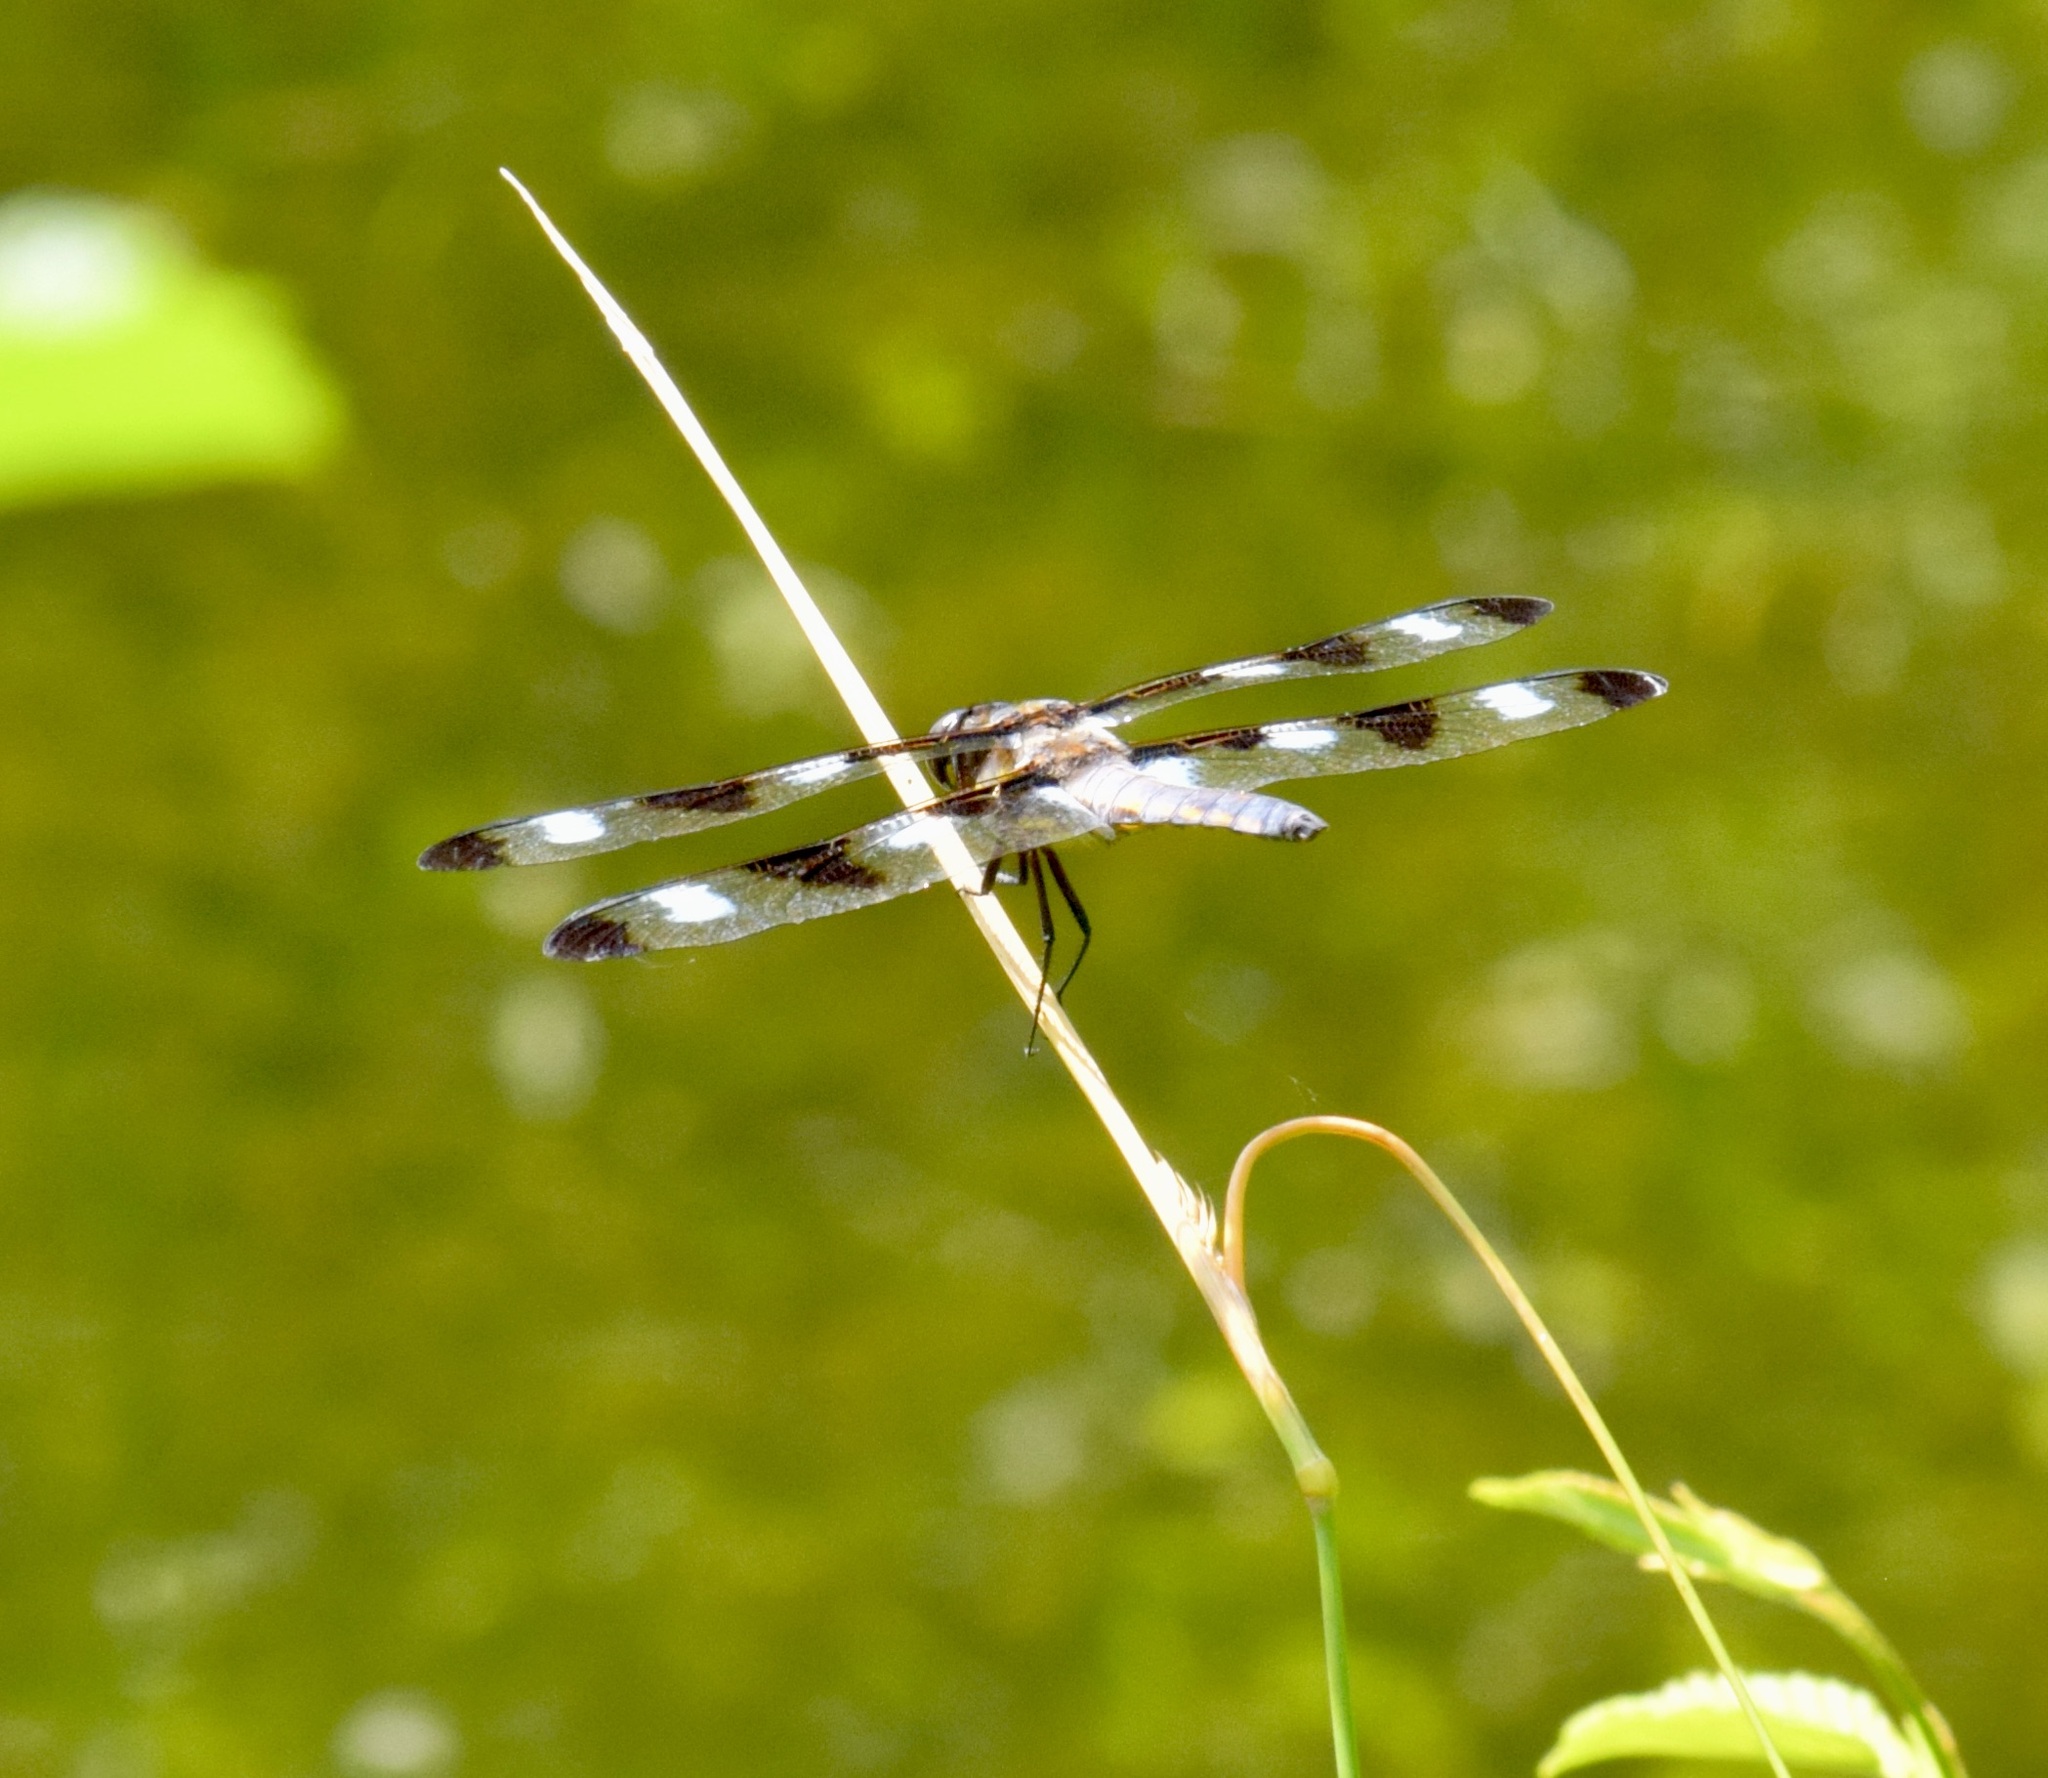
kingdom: Animalia
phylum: Arthropoda
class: Insecta
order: Odonata
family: Libellulidae
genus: Libellula
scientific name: Libellula pulchella
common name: Twelve-spotted skimmer
